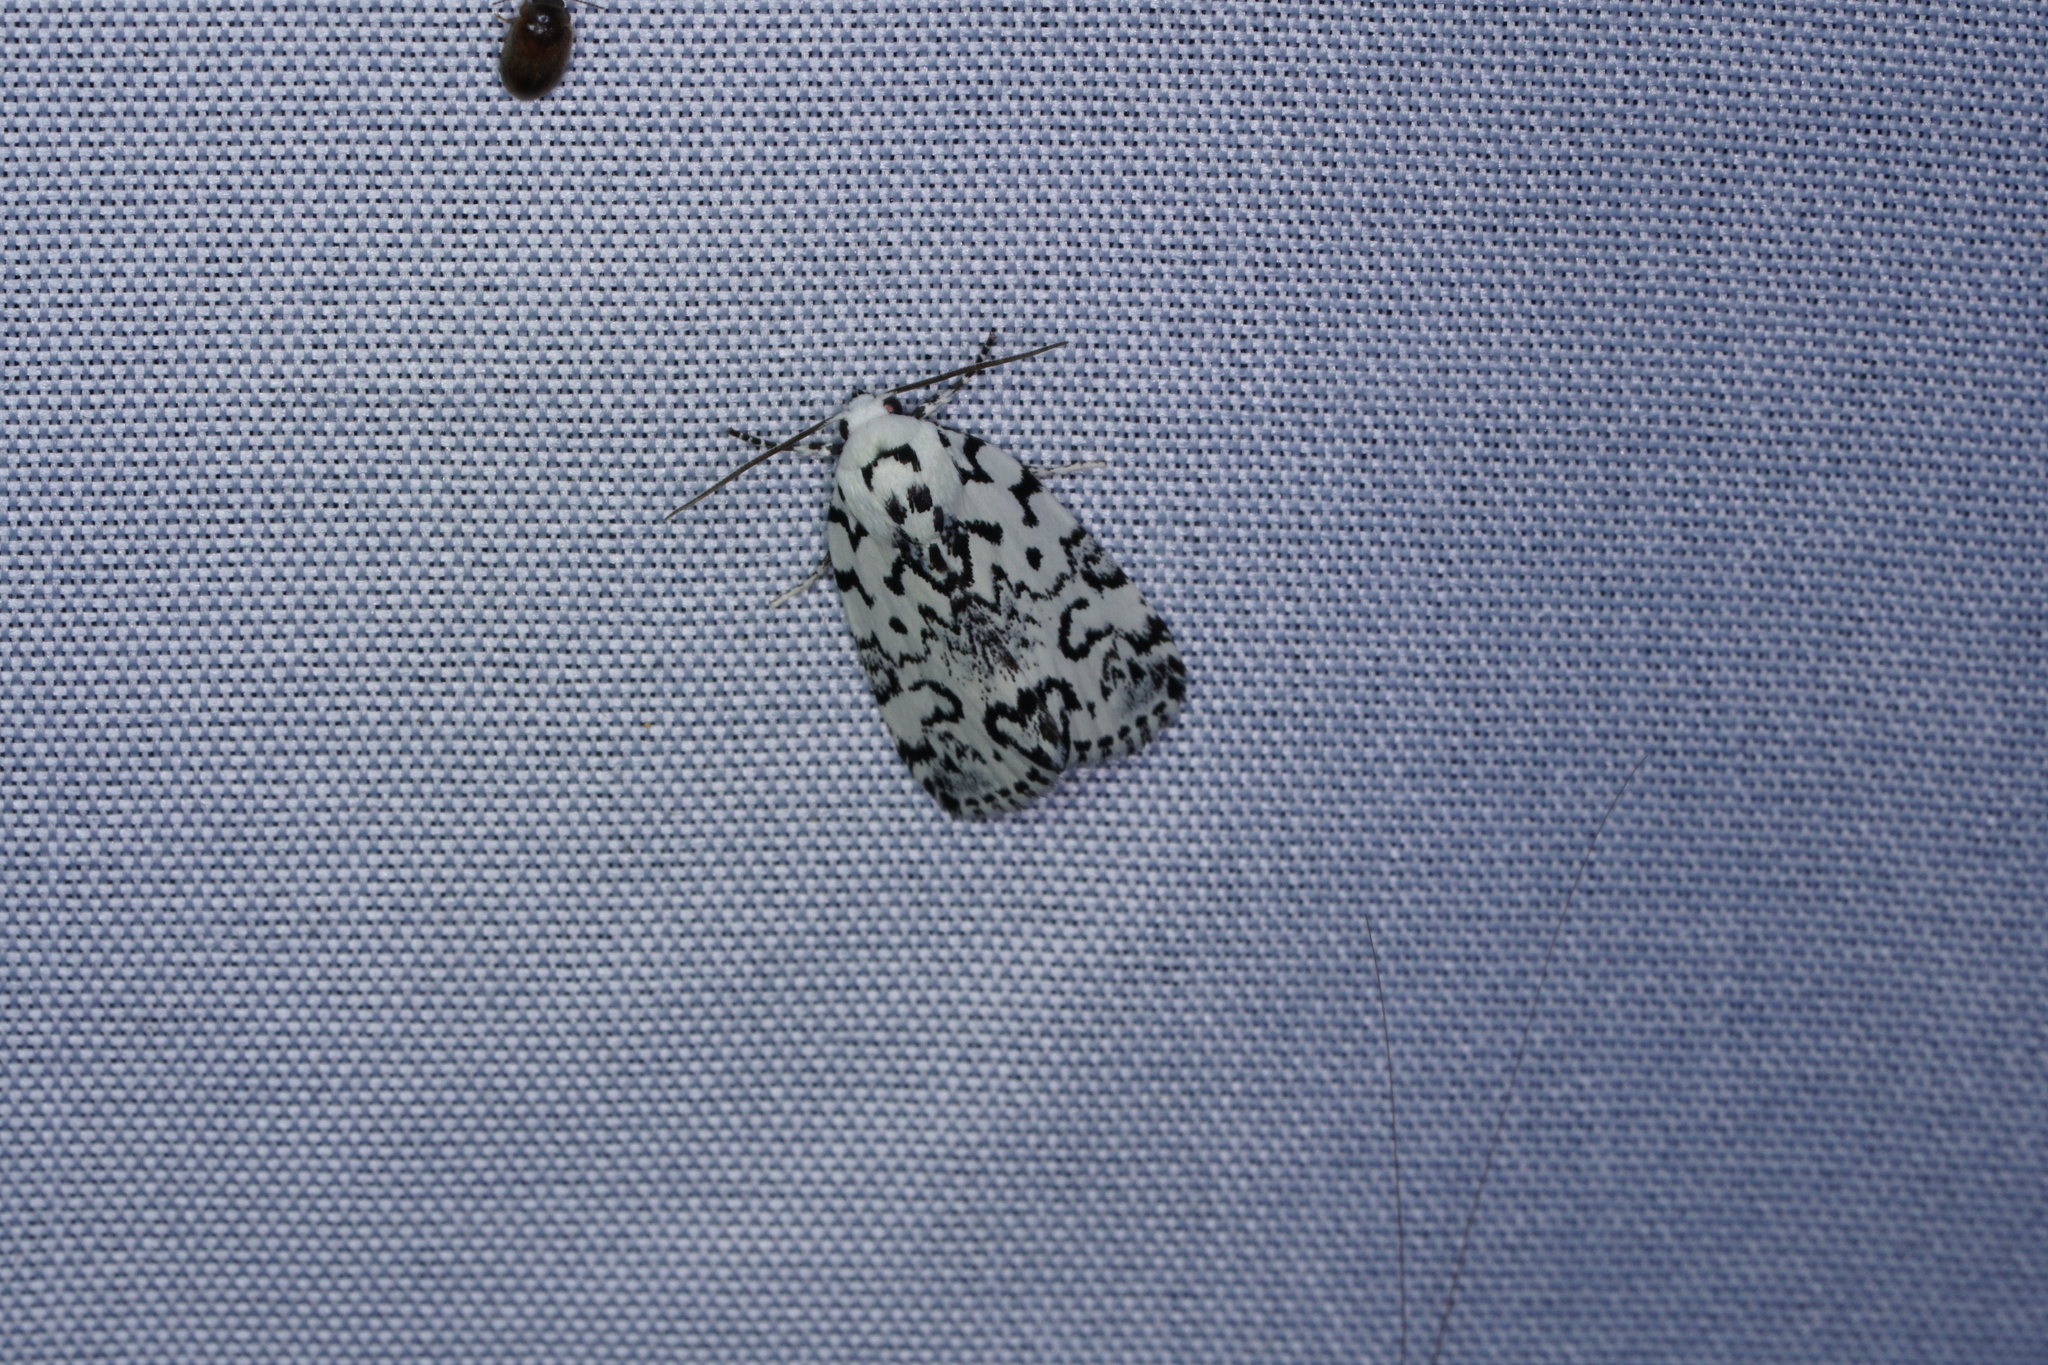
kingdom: Animalia
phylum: Arthropoda
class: Insecta
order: Lepidoptera
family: Noctuidae
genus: Polygrammate
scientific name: Polygrammate hebraeicum
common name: Hebrew moth
